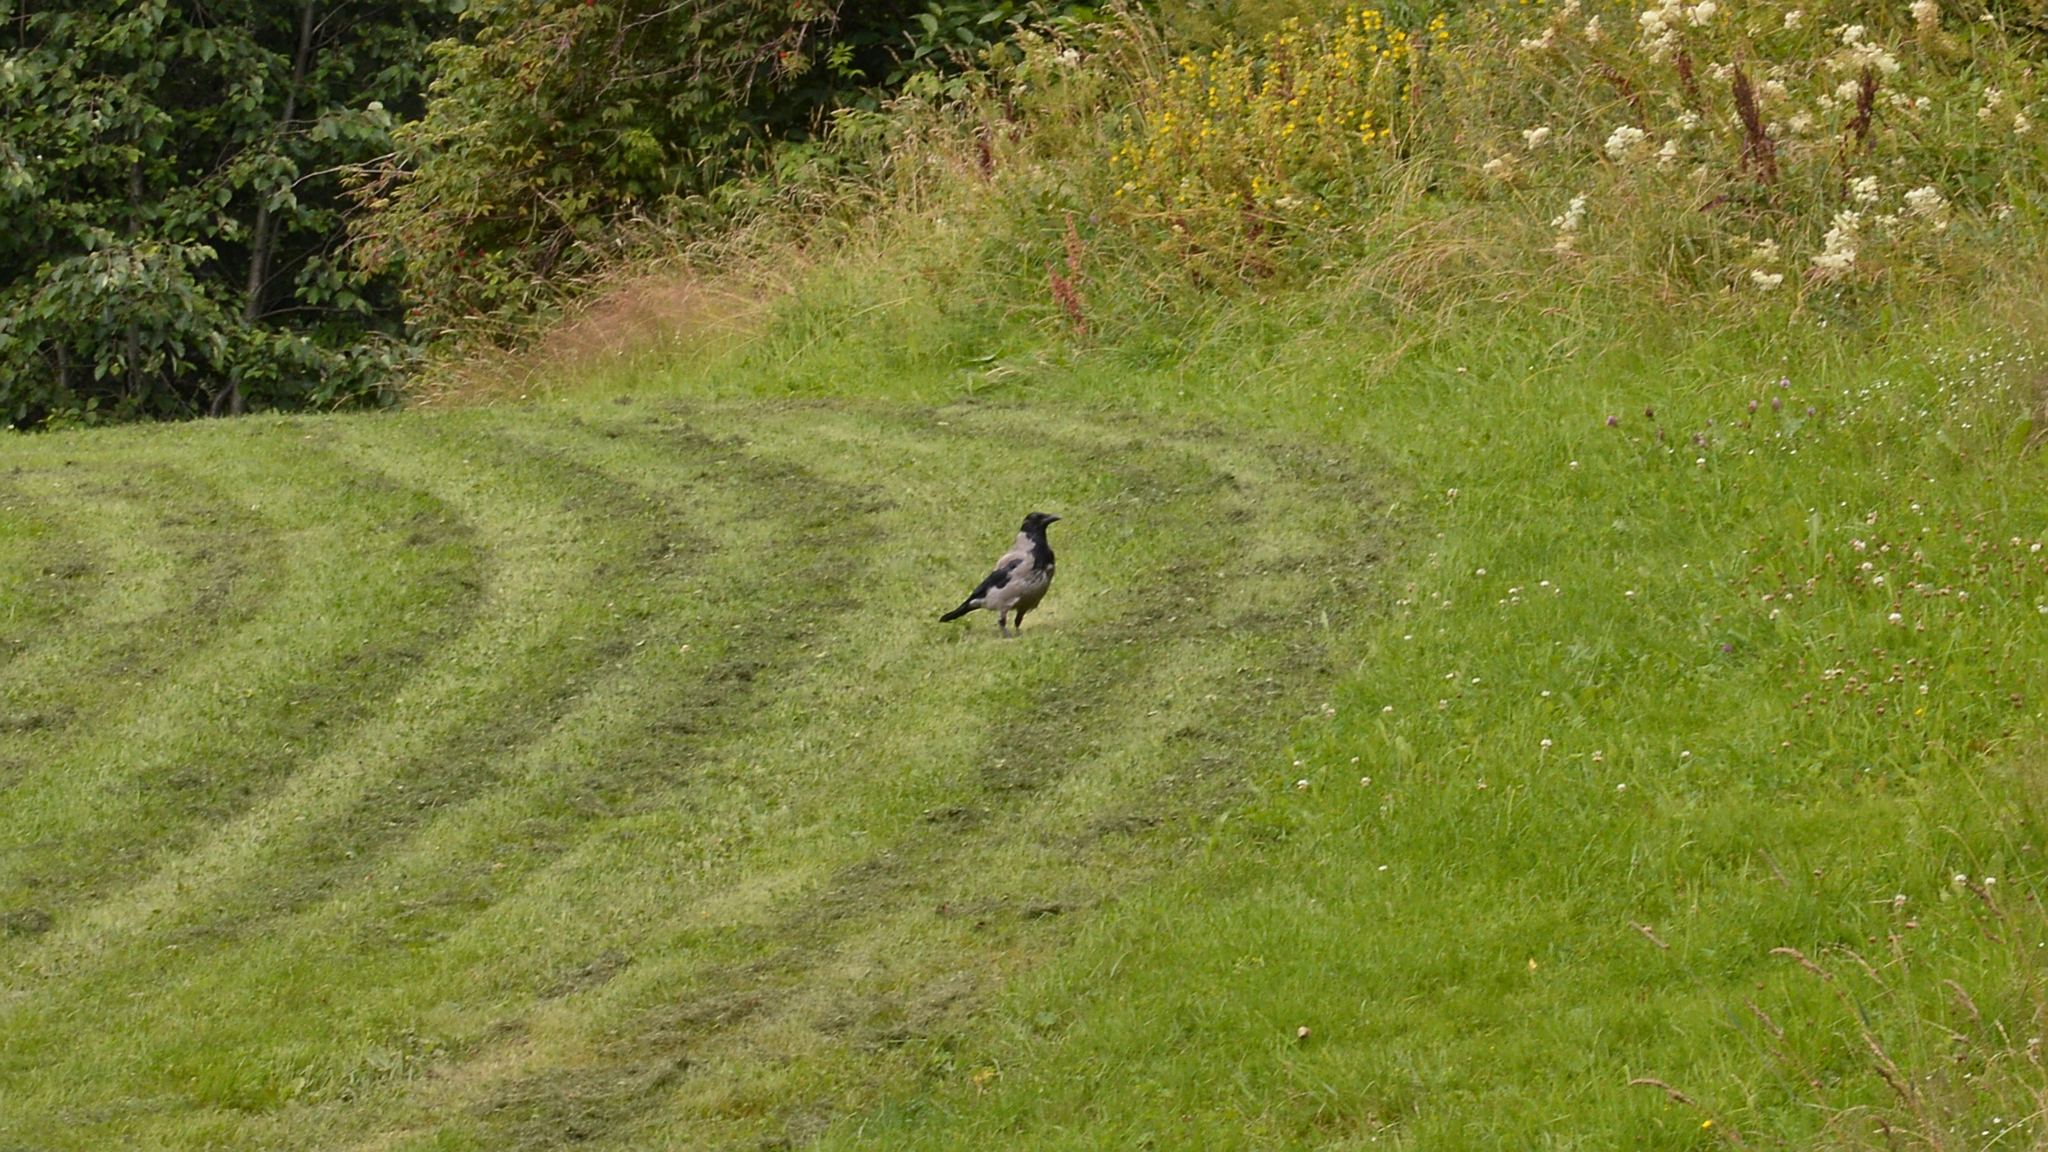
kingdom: Animalia
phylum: Chordata
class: Aves
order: Passeriformes
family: Corvidae
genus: Corvus
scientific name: Corvus cornix
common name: Hooded crow
